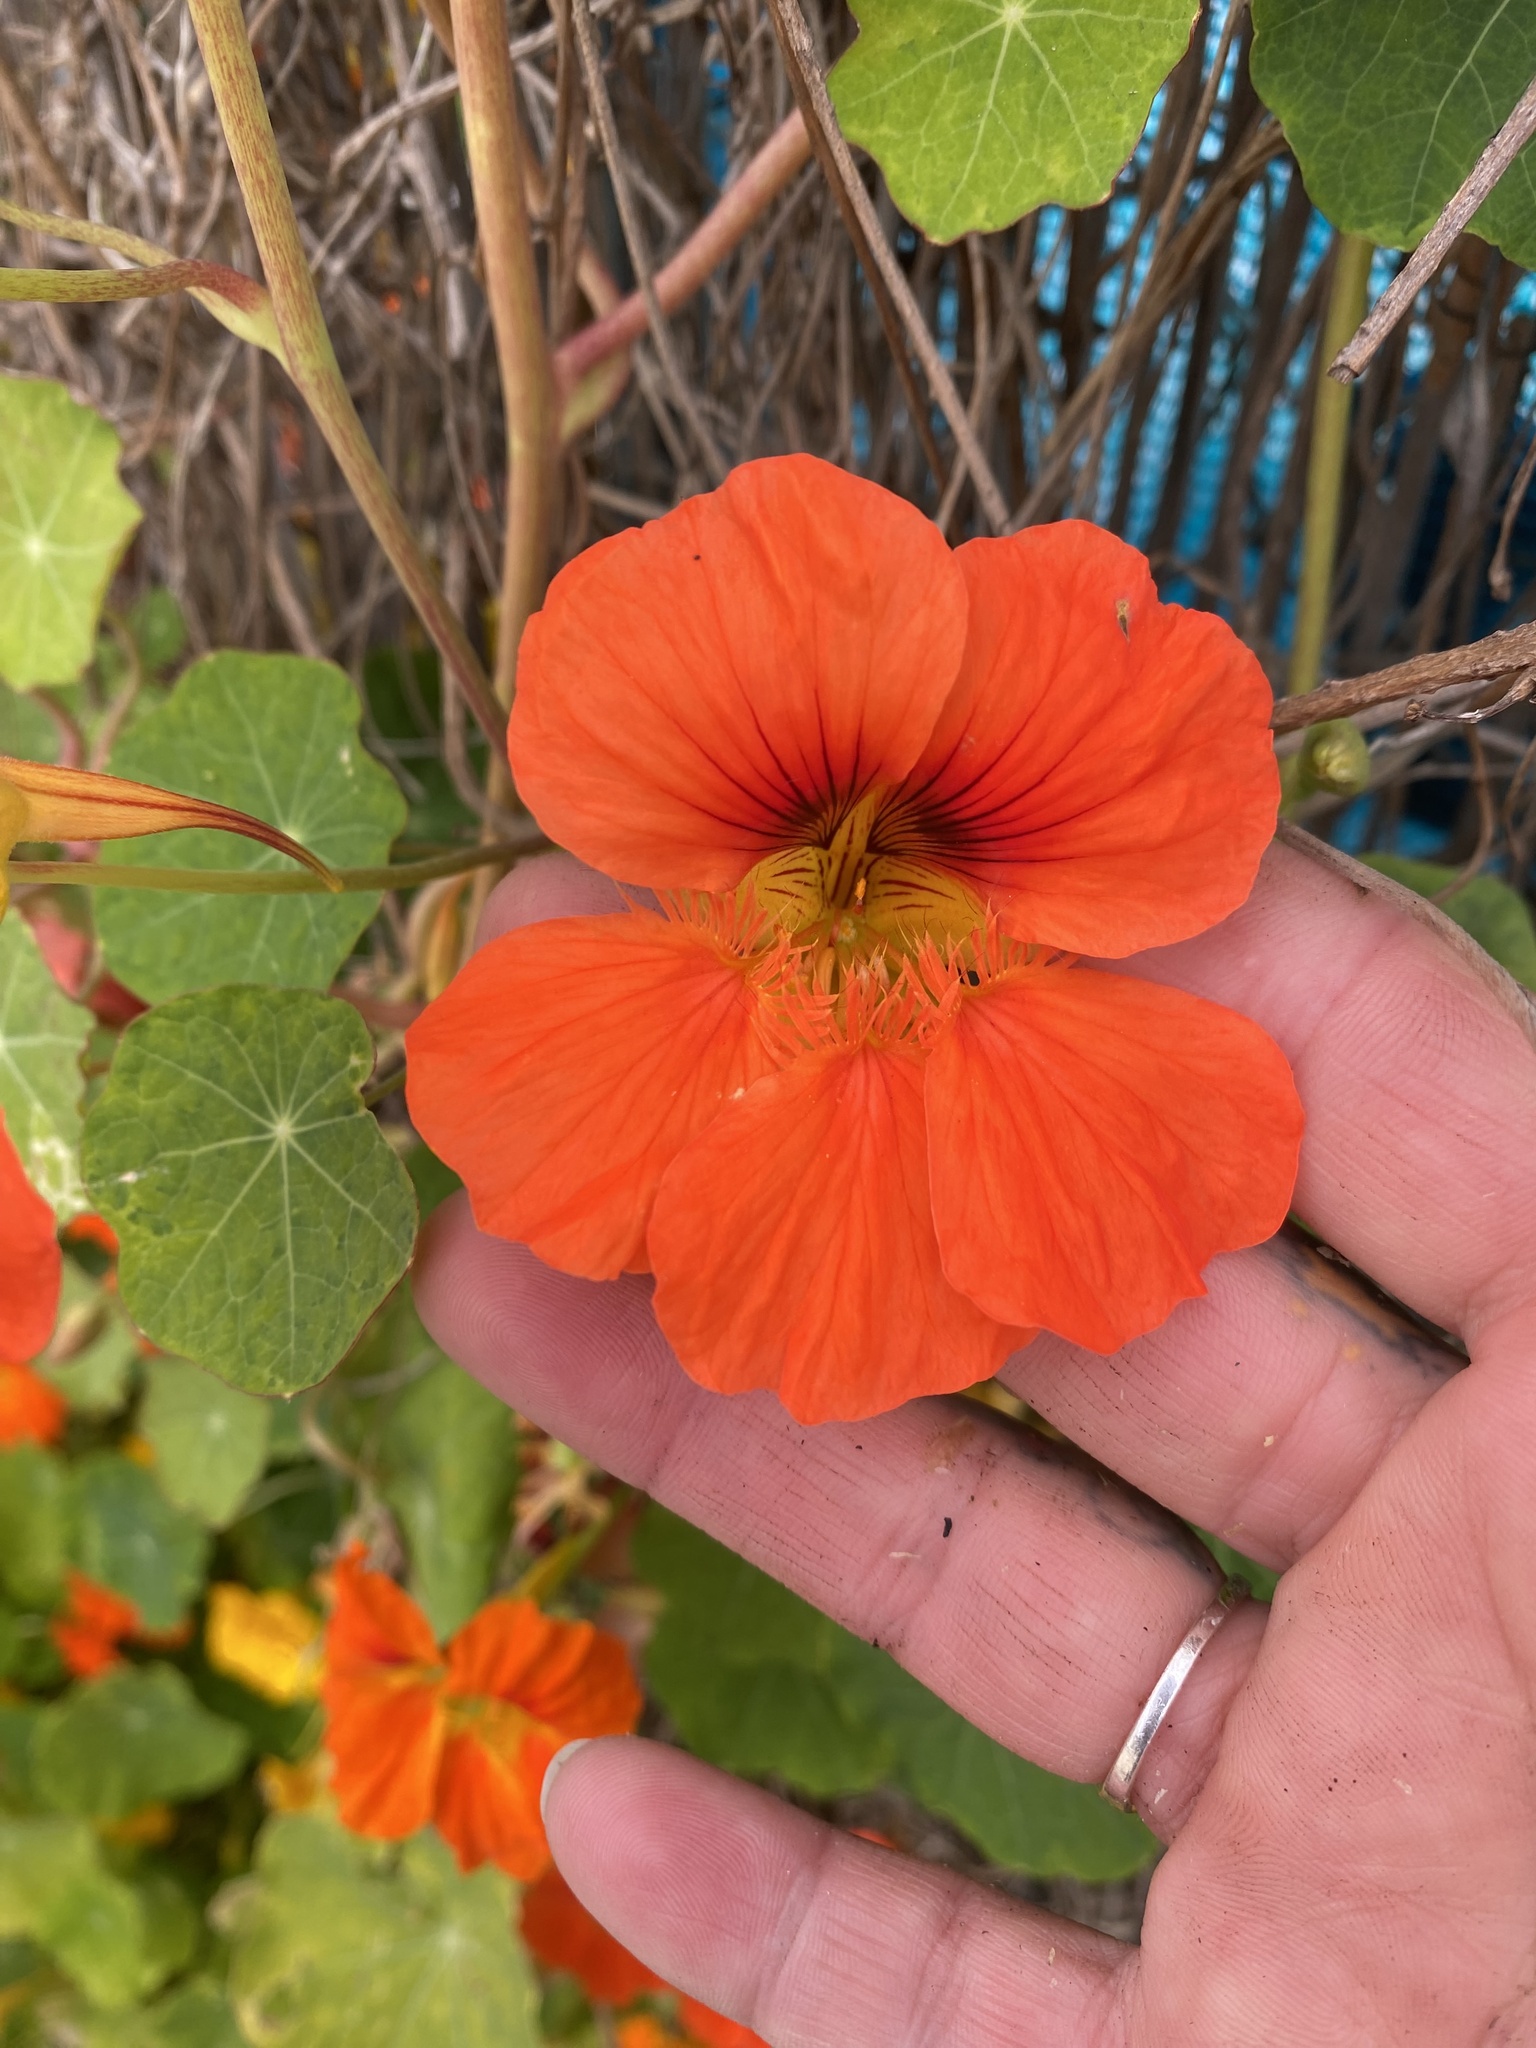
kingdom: Plantae
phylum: Tracheophyta
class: Magnoliopsida
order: Brassicales
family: Tropaeolaceae
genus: Tropaeolum
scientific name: Tropaeolum majus
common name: Nasturtium
